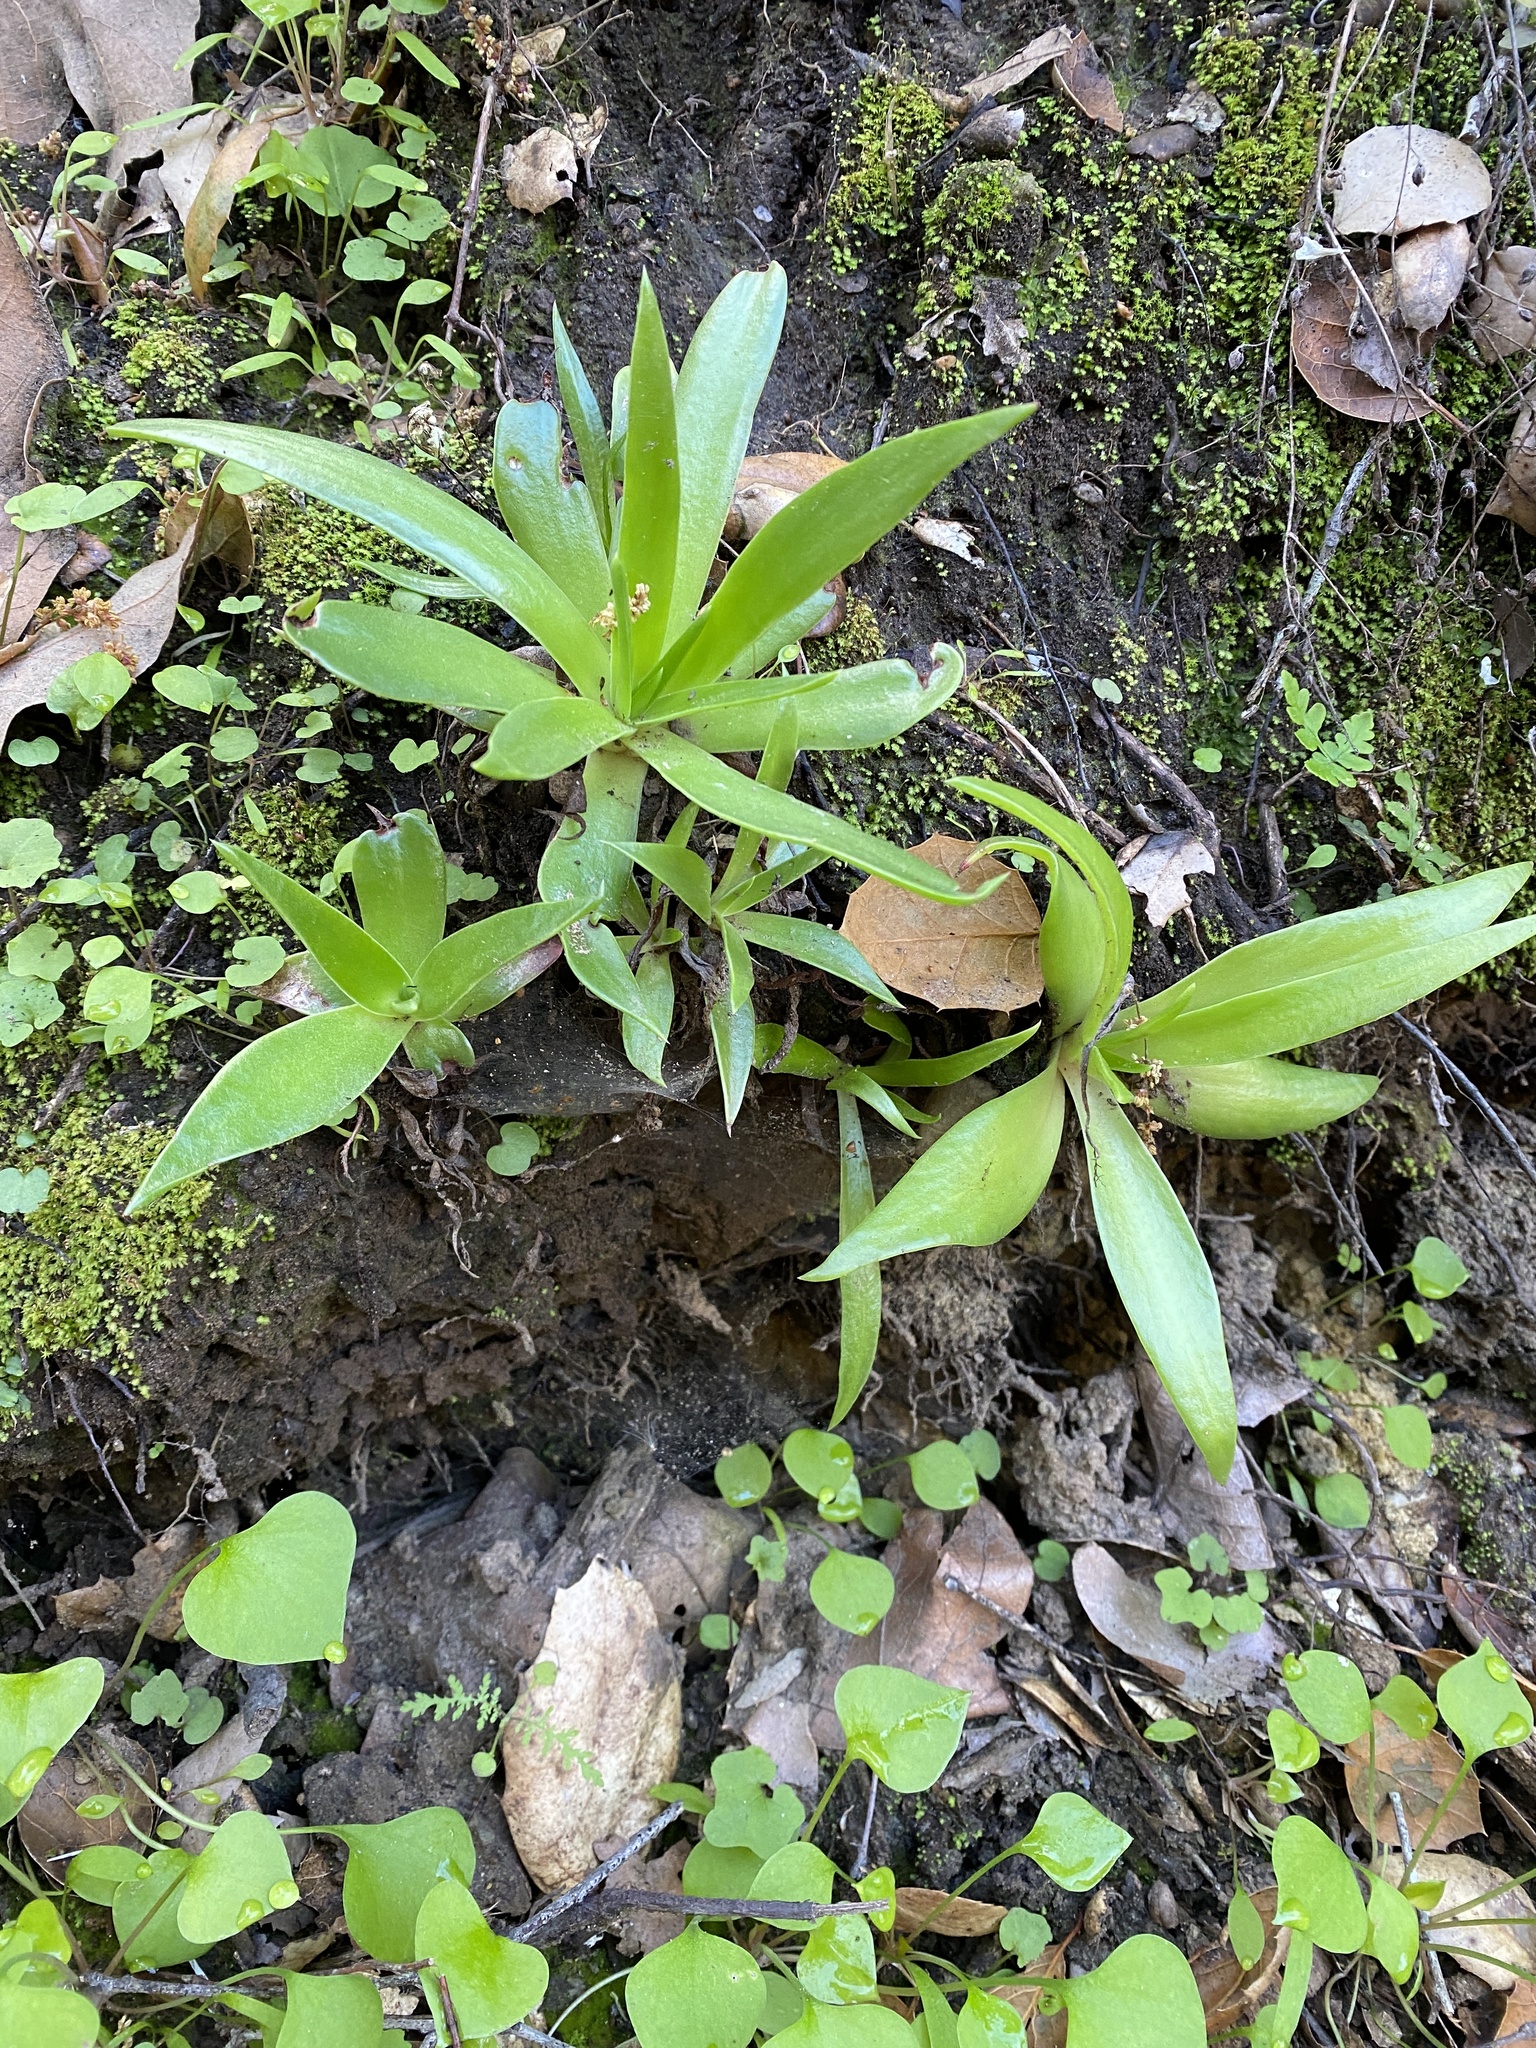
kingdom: Plantae
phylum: Tracheophyta
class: Magnoliopsida
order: Saxifragales
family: Crassulaceae
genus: Dudleya
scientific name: Dudleya lanceolata
